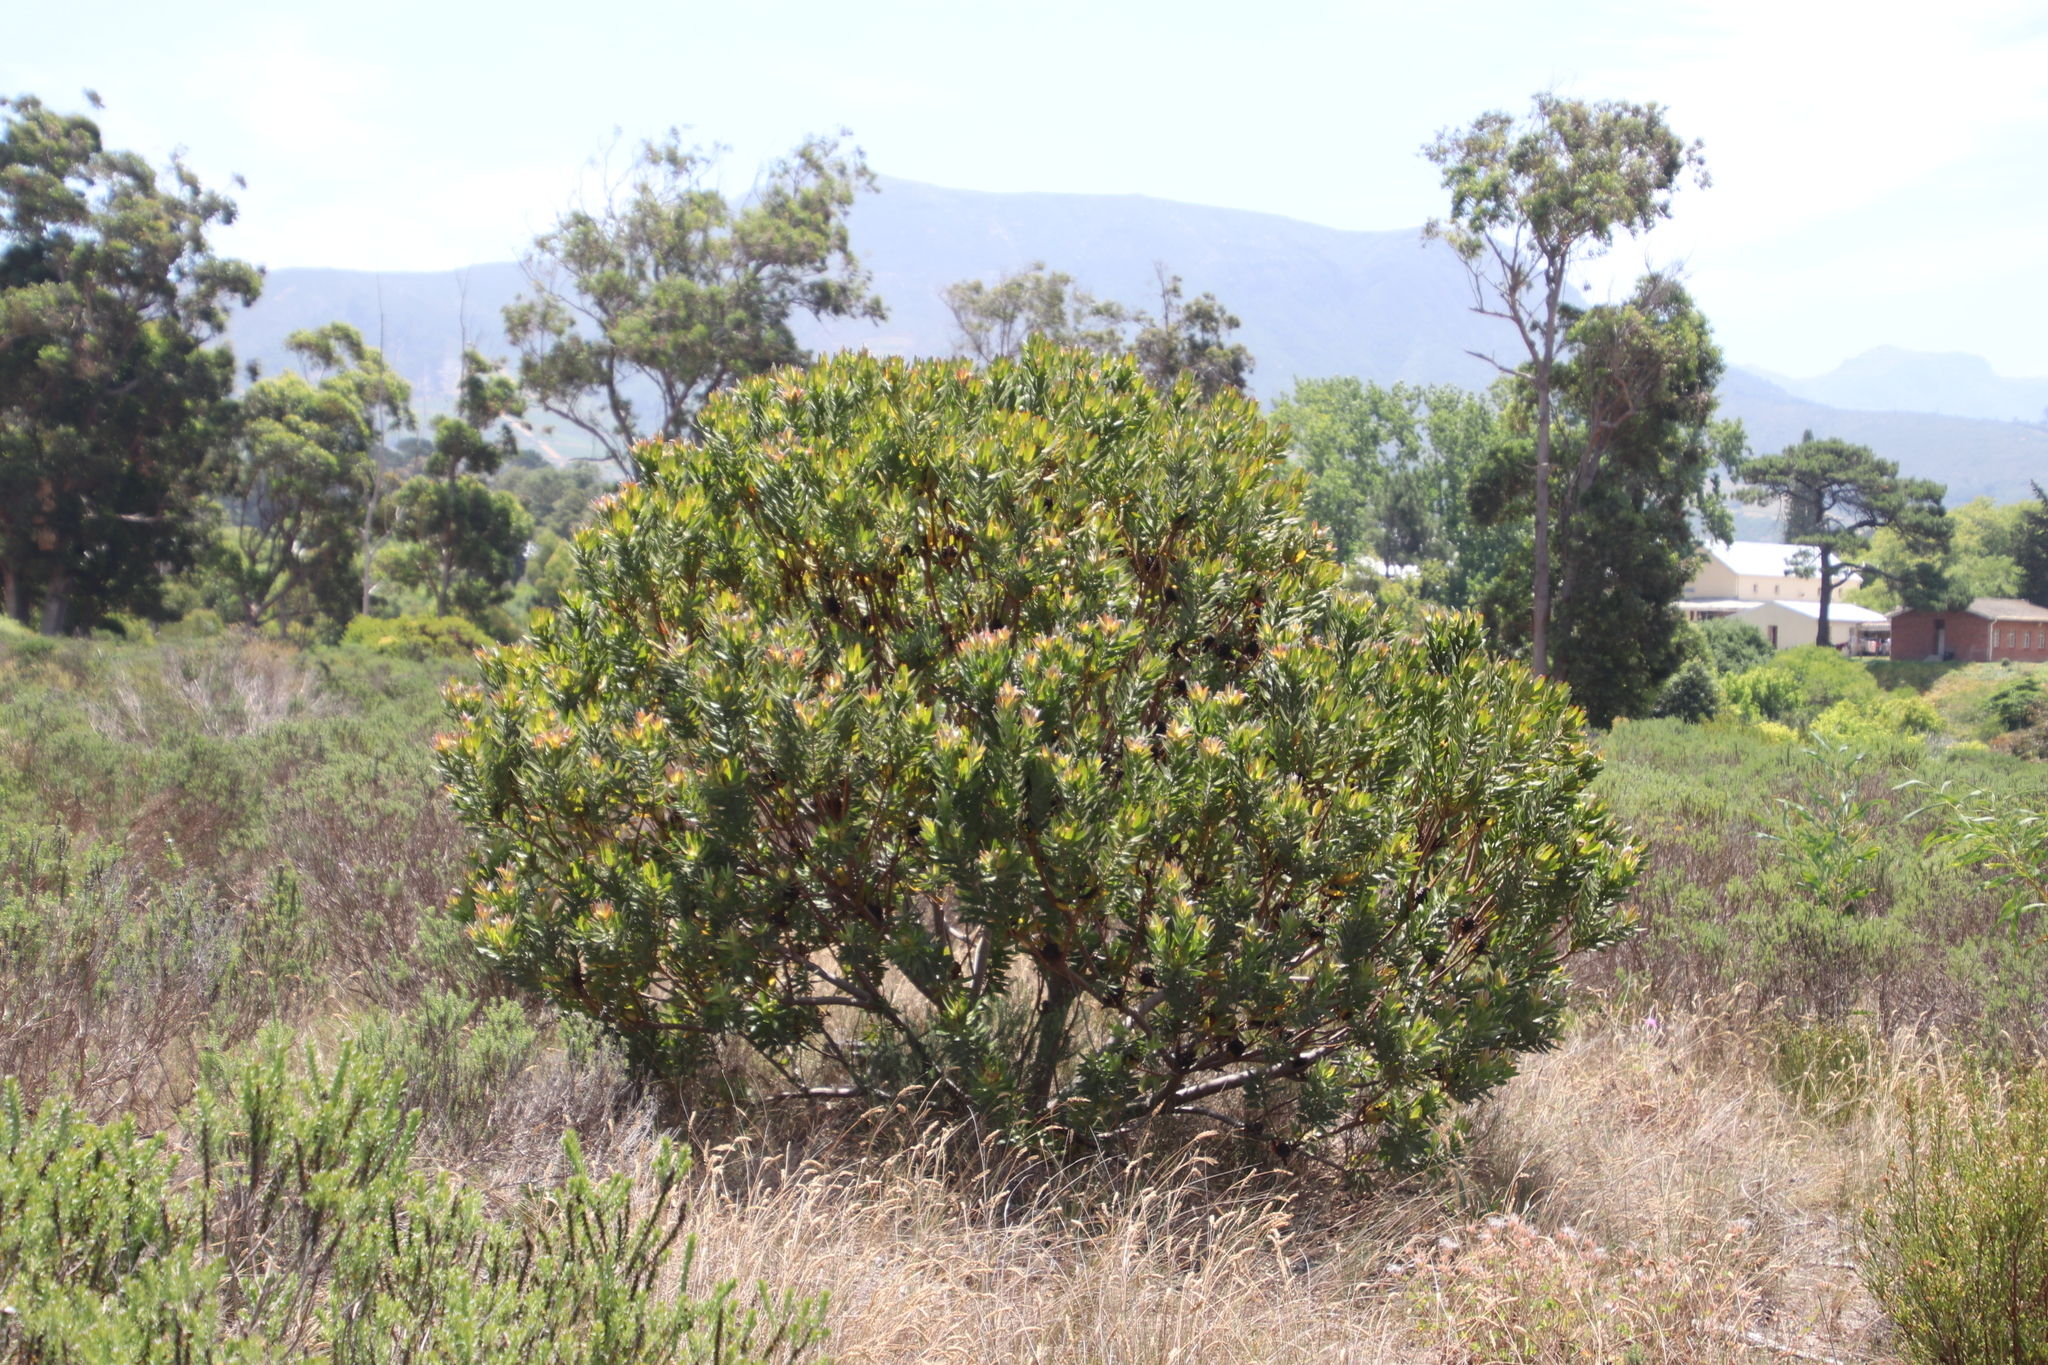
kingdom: Plantae
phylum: Tracheophyta
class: Magnoliopsida
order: Proteales
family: Proteaceae
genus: Leucadendron
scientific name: Leucadendron laureolum
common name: Golden sunshinebush
